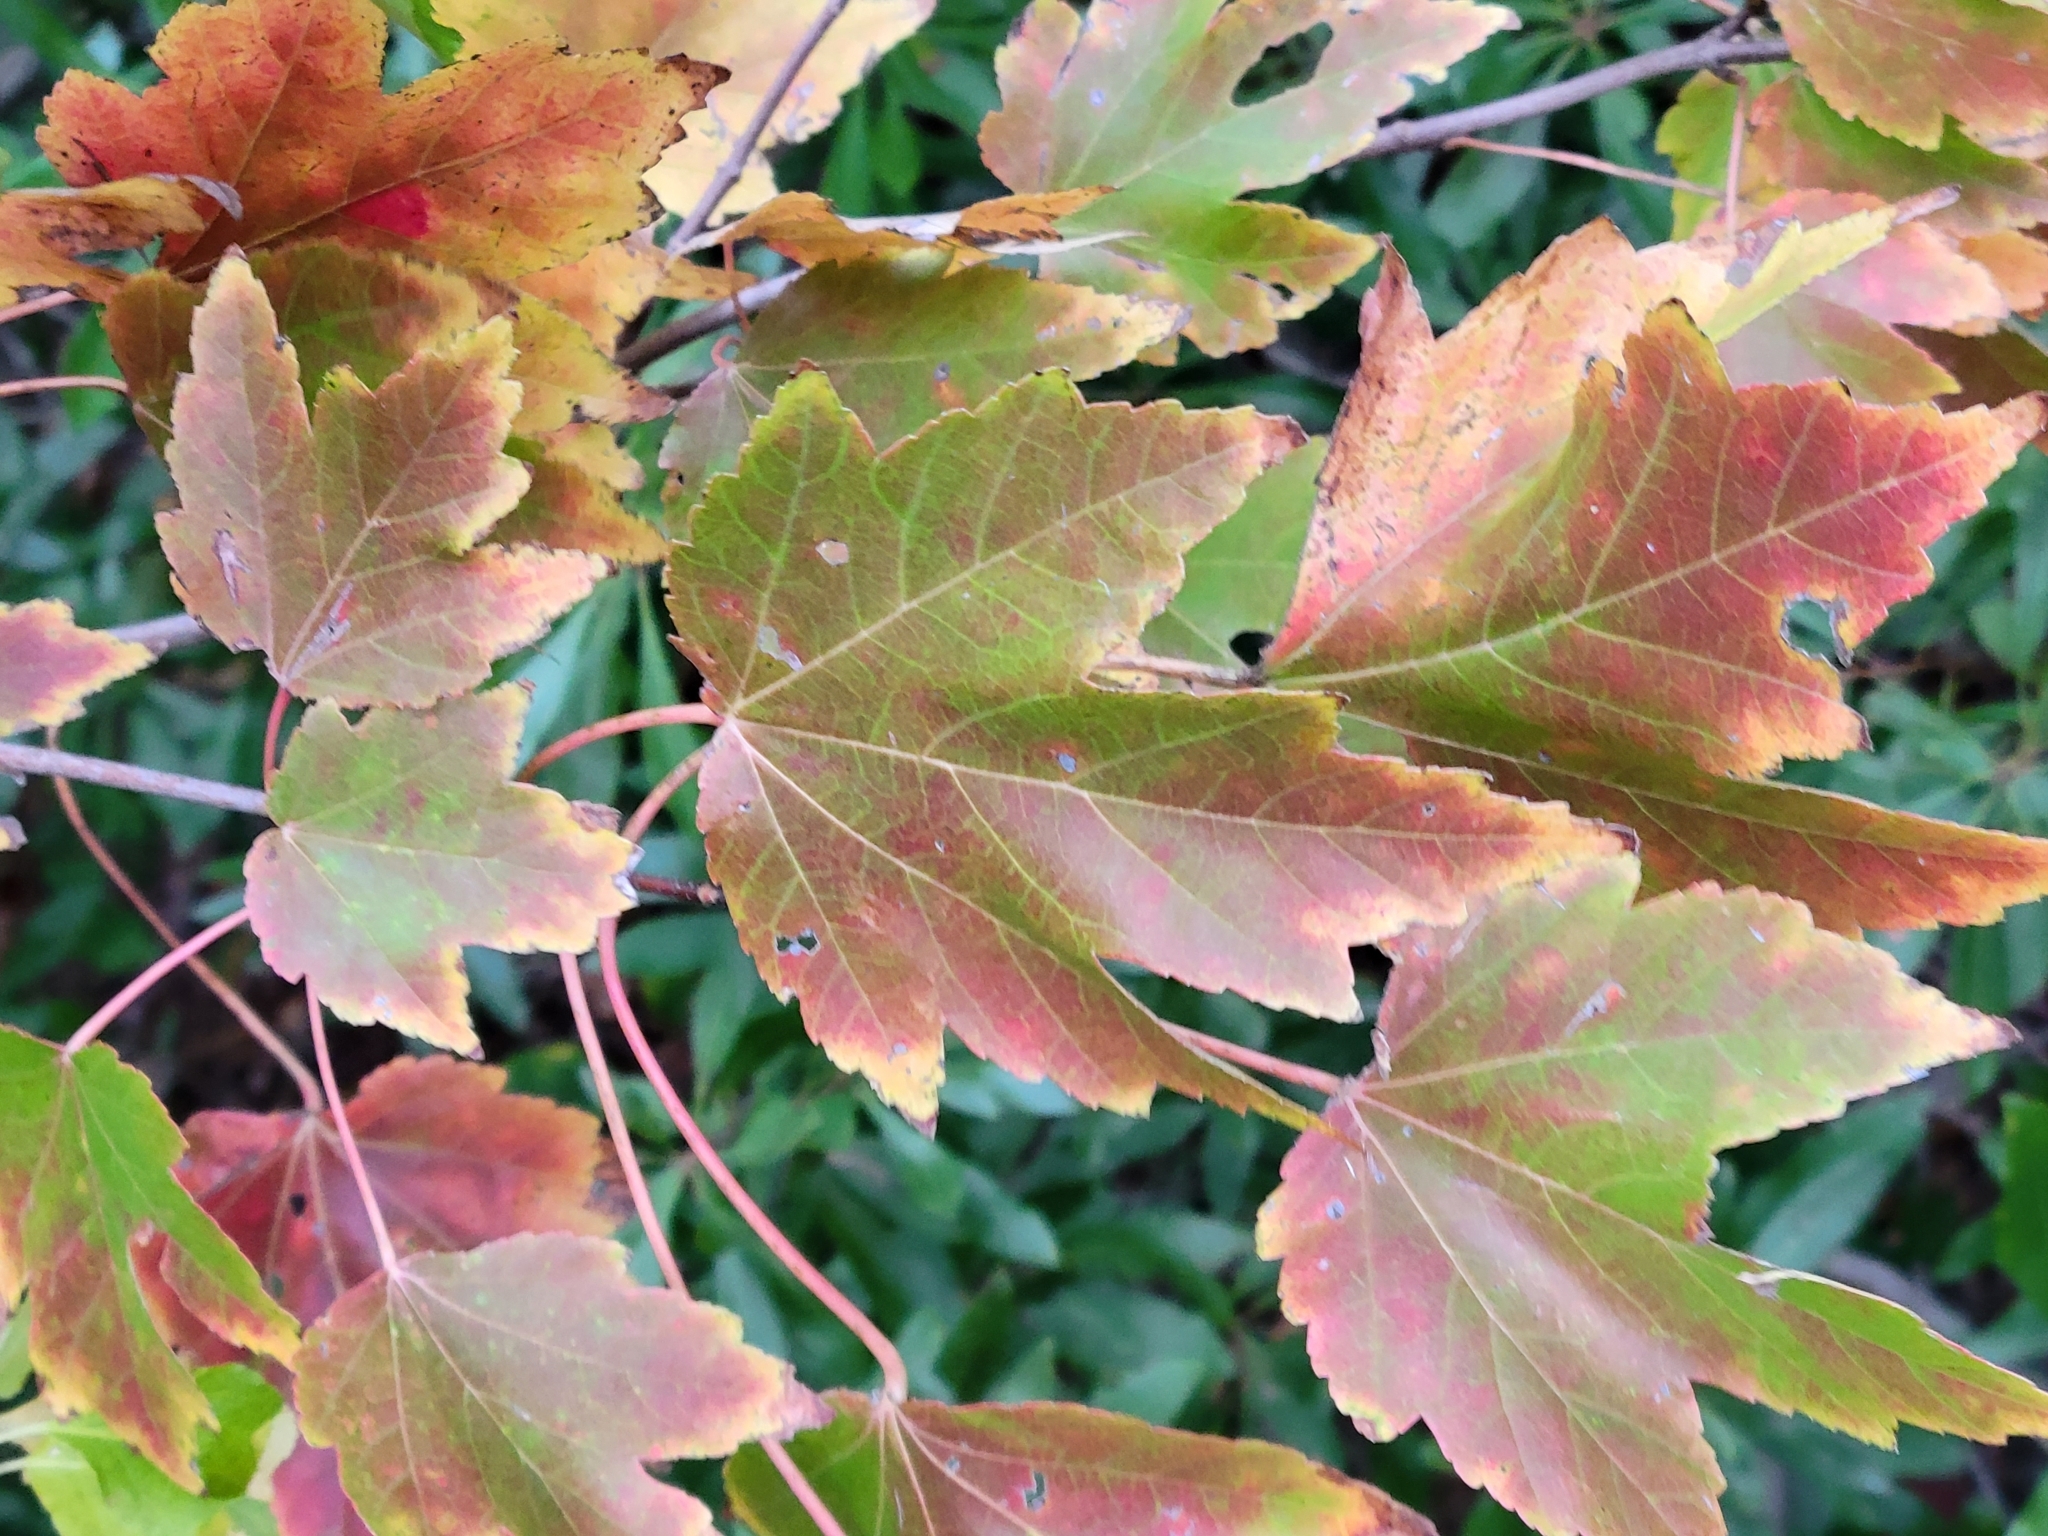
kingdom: Plantae
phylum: Tracheophyta
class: Magnoliopsida
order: Sapindales
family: Sapindaceae
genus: Acer
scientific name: Acer rubrum
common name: Red maple
